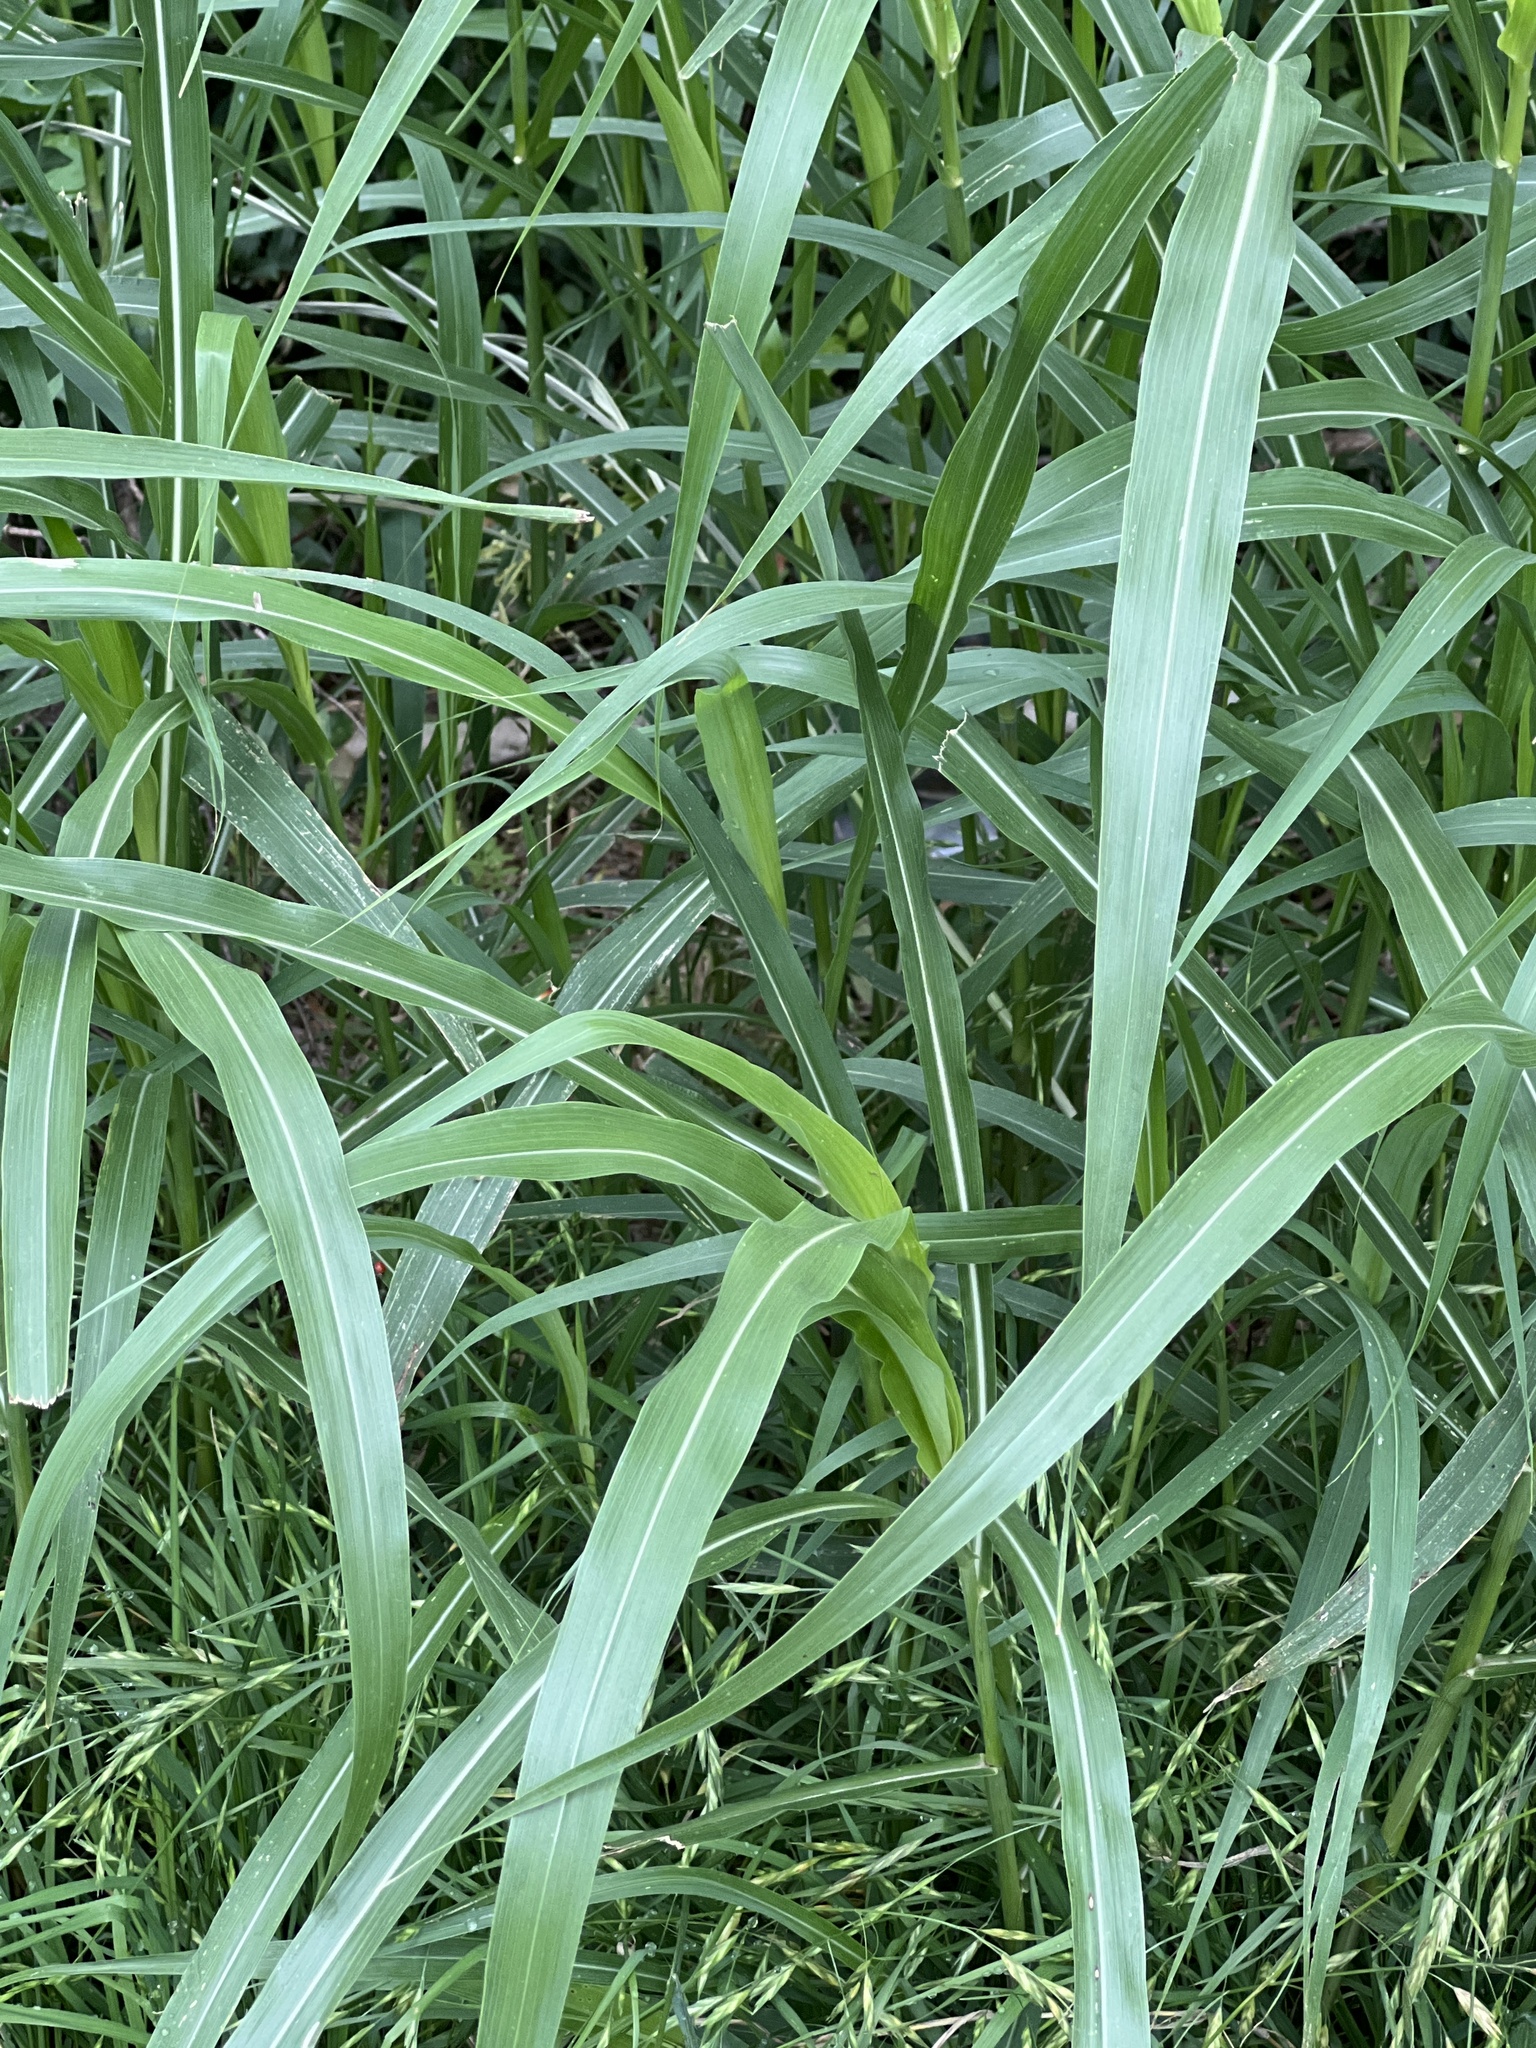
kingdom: Plantae
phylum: Tracheophyta
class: Liliopsida
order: Poales
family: Poaceae
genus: Sorghum
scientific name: Sorghum halepense
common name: Johnson-grass
